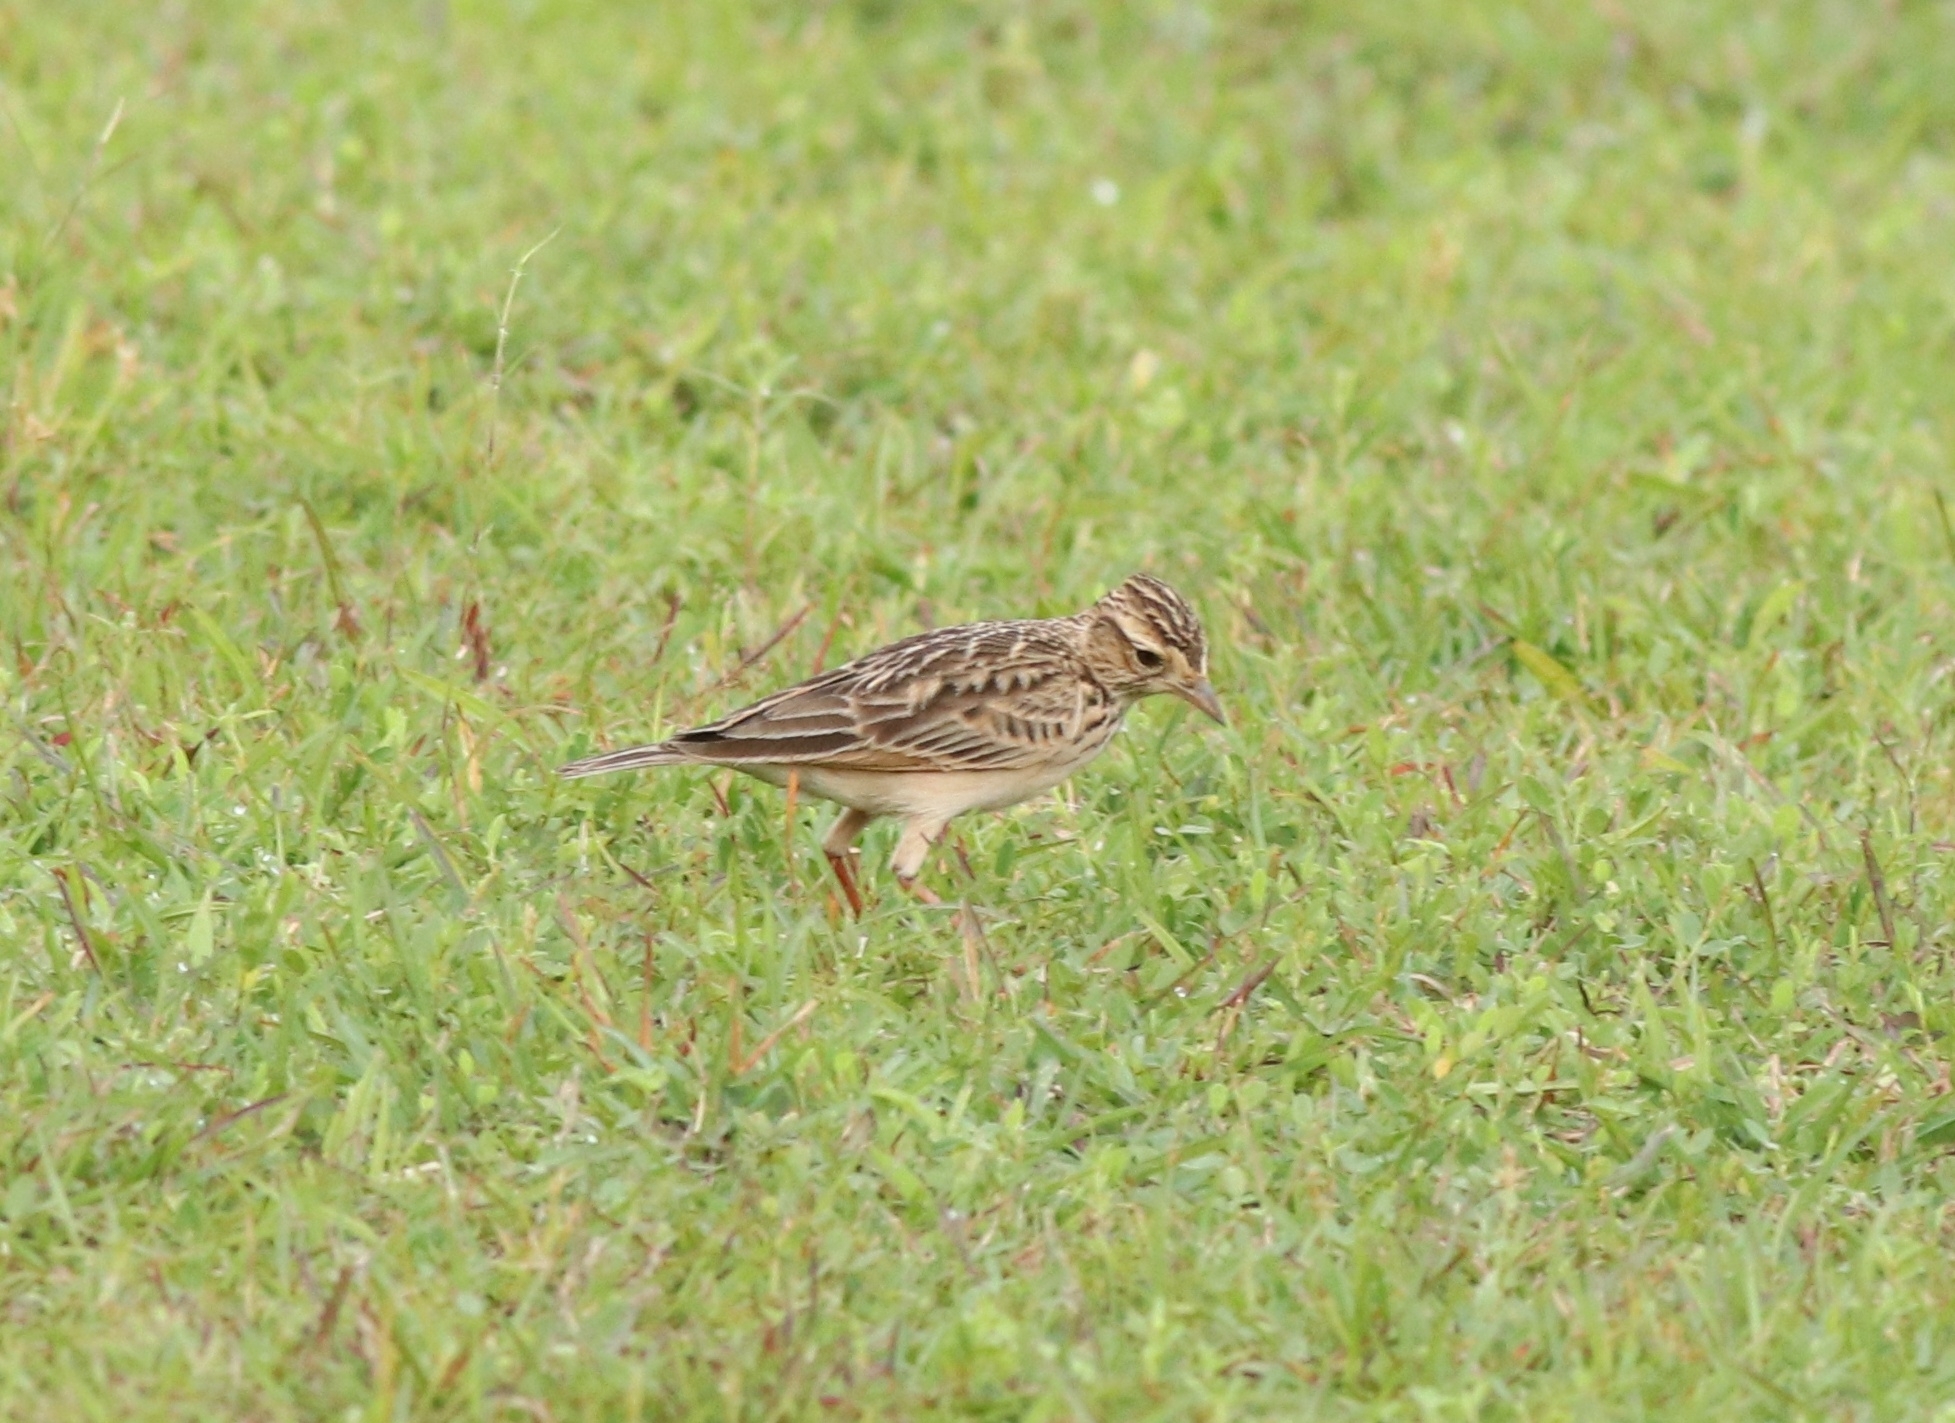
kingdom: Animalia
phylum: Chordata
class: Aves
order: Passeriformes
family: Alaudidae
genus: Alauda
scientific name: Alauda gulgula
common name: Oriental skylark
